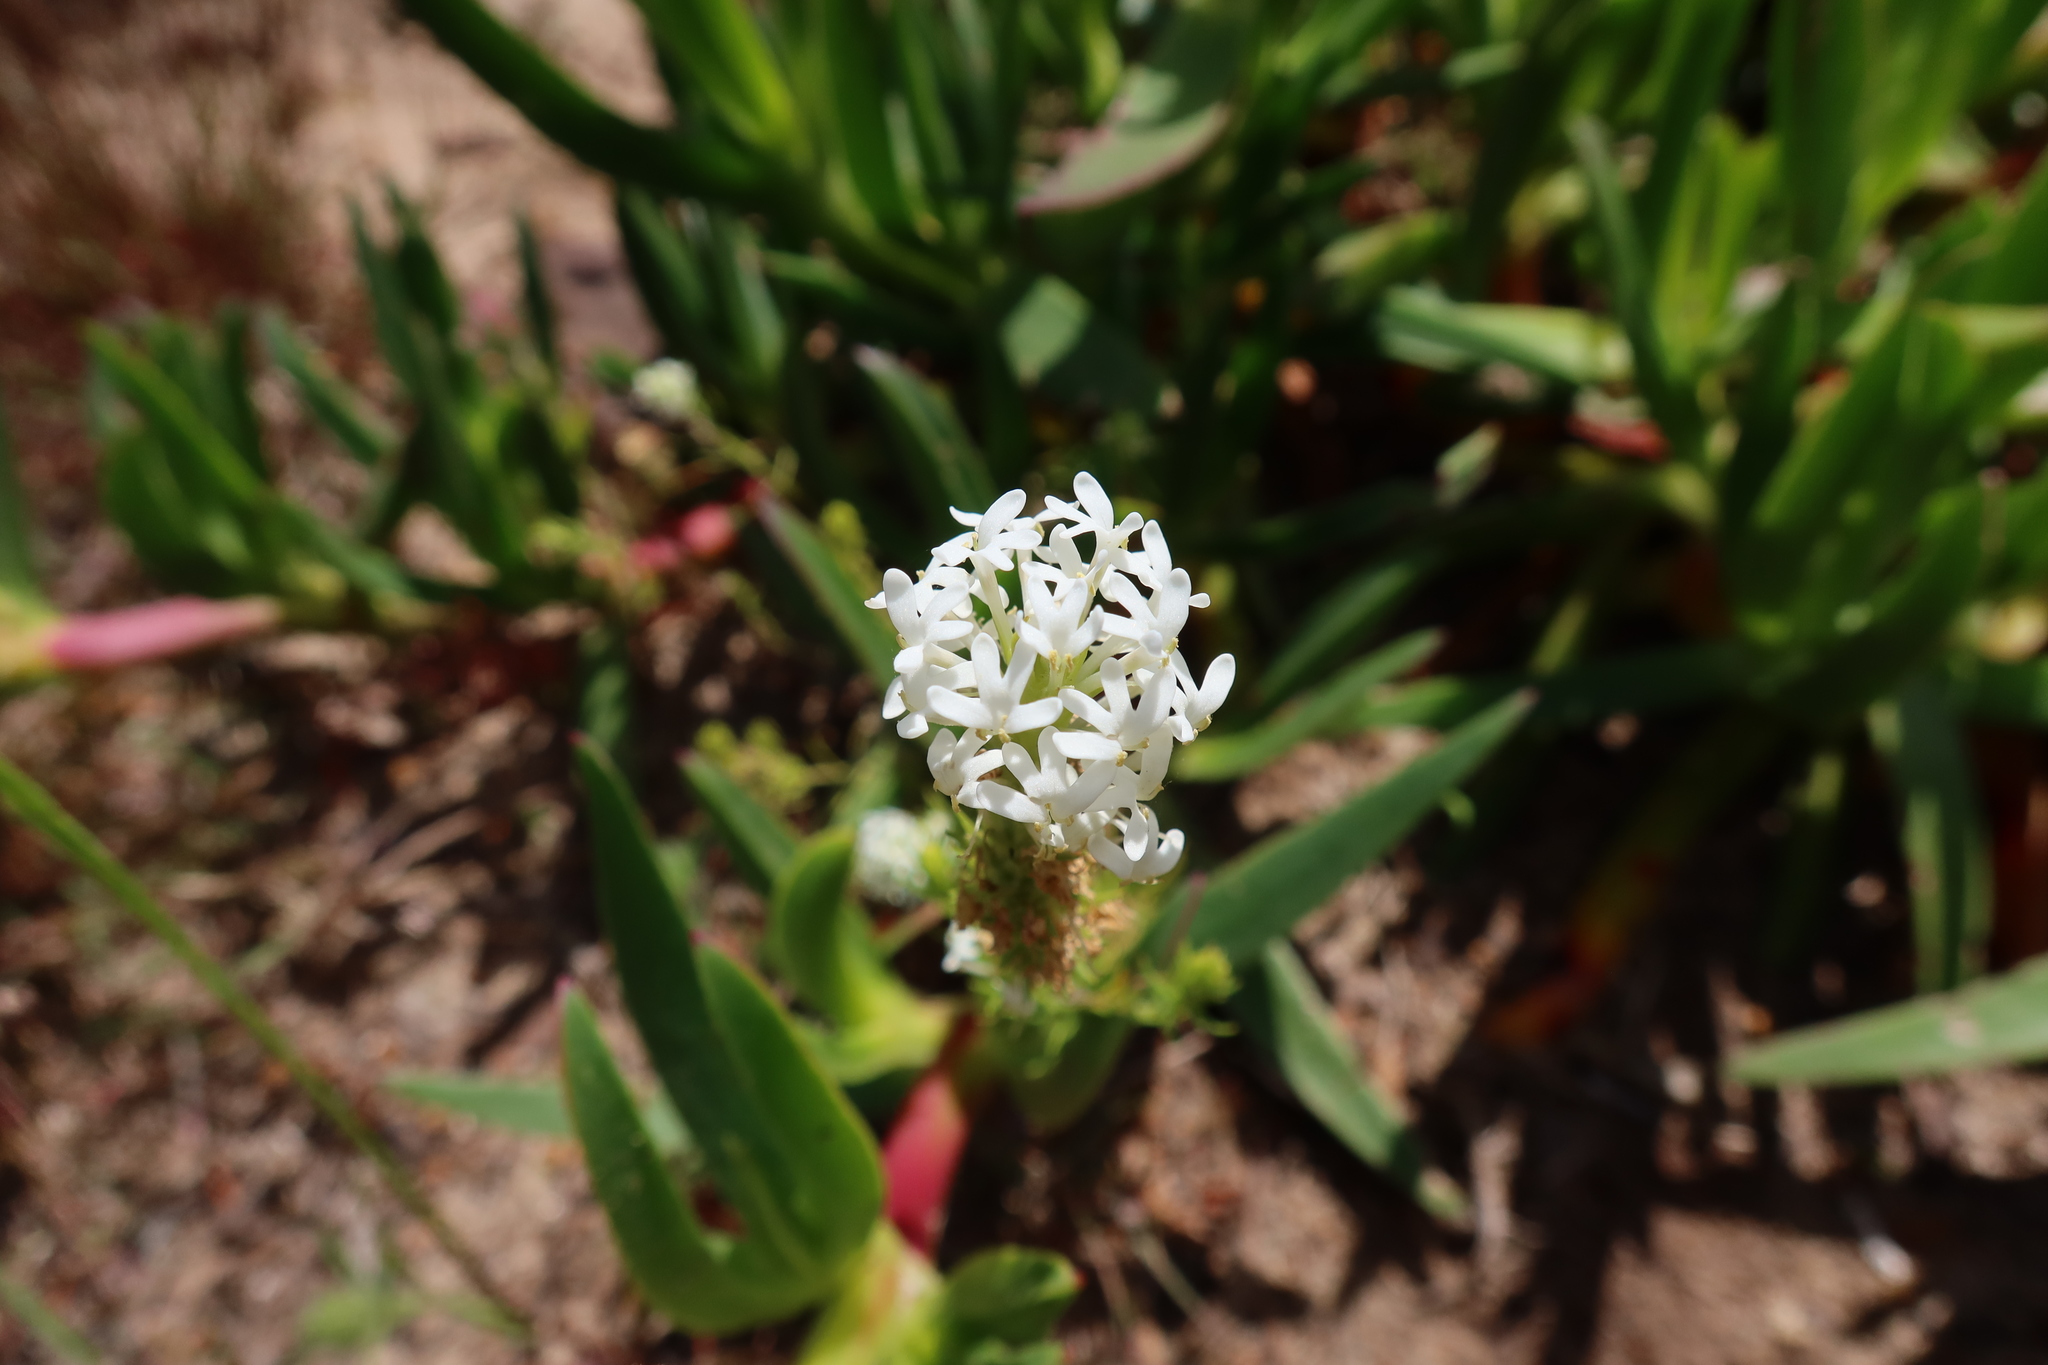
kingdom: Plantae
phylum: Tracheophyta
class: Magnoliopsida
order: Lamiales
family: Scrophulariaceae
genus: Dischisma
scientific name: Dischisma ciliatum
